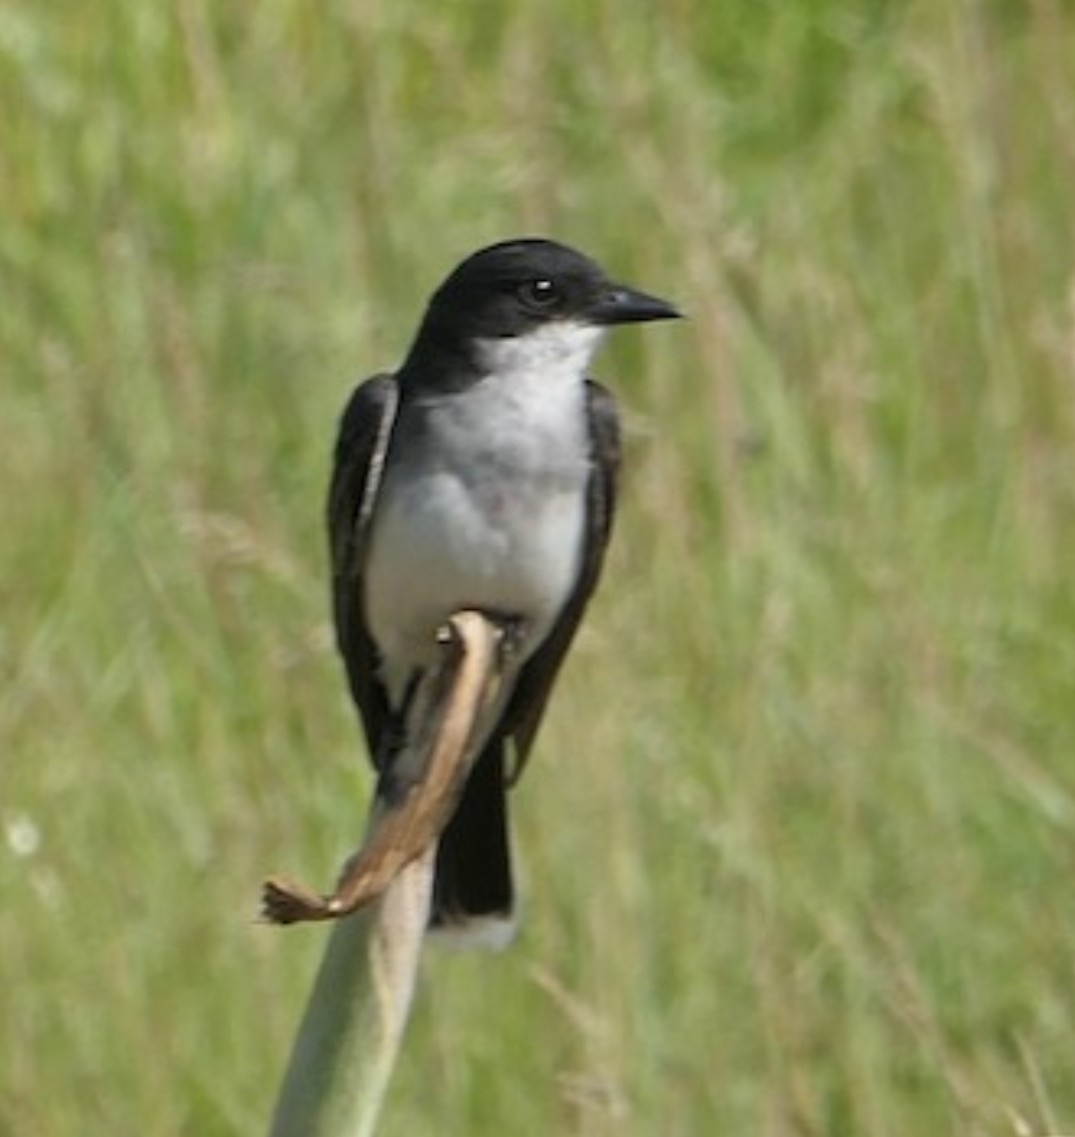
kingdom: Animalia
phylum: Chordata
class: Aves
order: Passeriformes
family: Tyrannidae
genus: Tyrannus
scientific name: Tyrannus tyrannus
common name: Eastern kingbird
